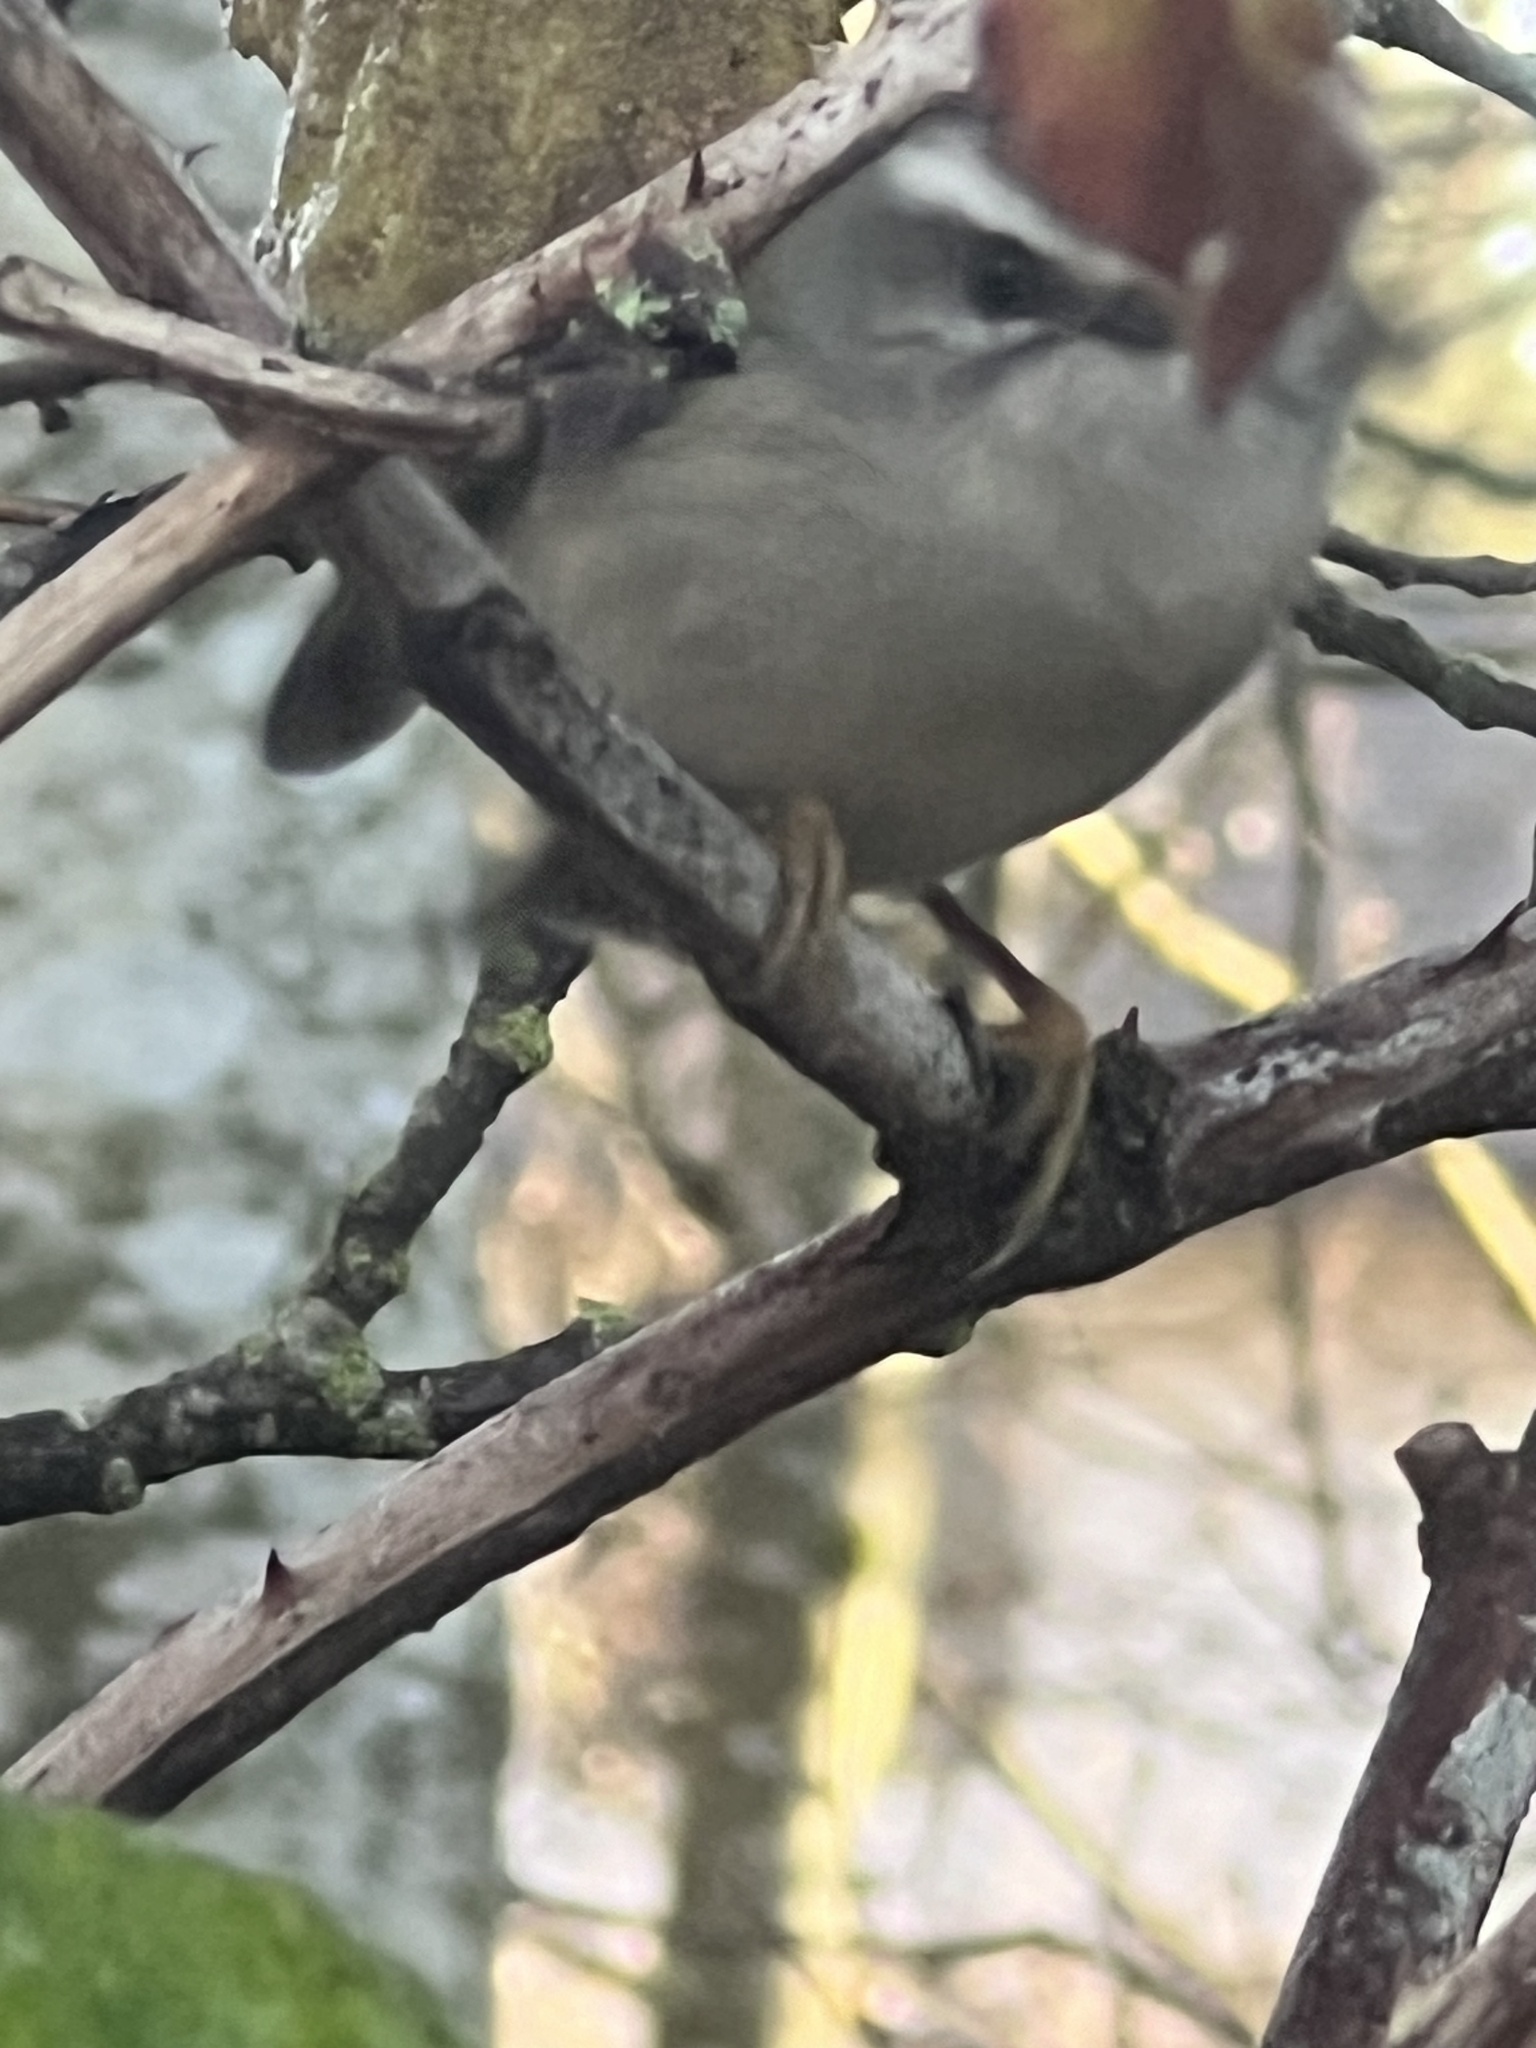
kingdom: Animalia
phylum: Chordata
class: Aves
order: Passeriformes
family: Regulidae
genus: Regulus
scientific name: Regulus satrapa
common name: Golden-crowned kinglet
